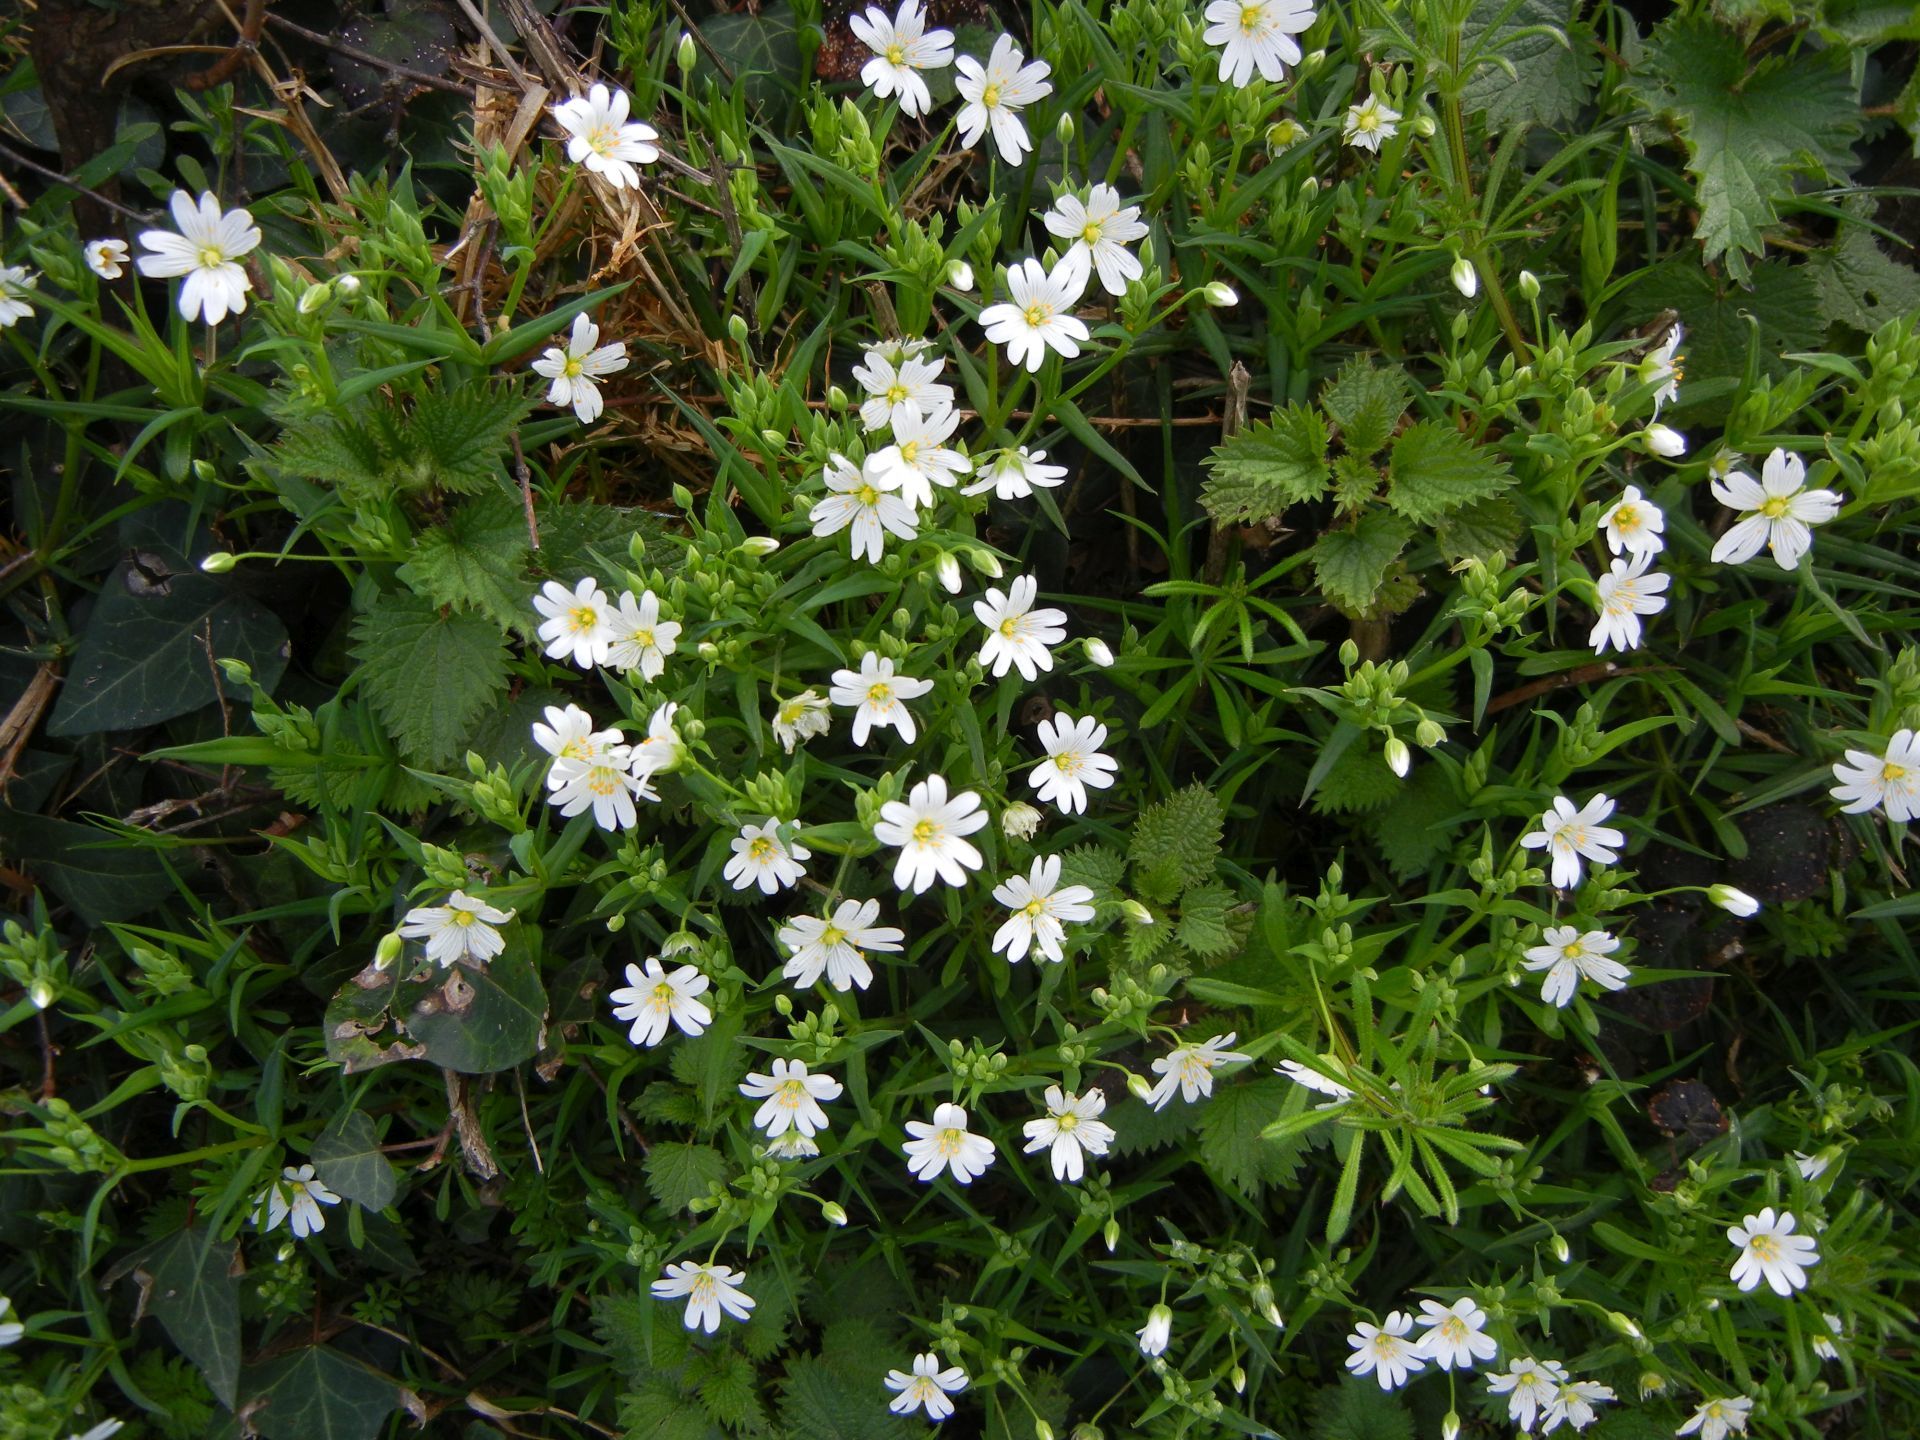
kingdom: Plantae
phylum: Tracheophyta
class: Magnoliopsida
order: Caryophyllales
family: Caryophyllaceae
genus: Rabelera
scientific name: Rabelera holostea
